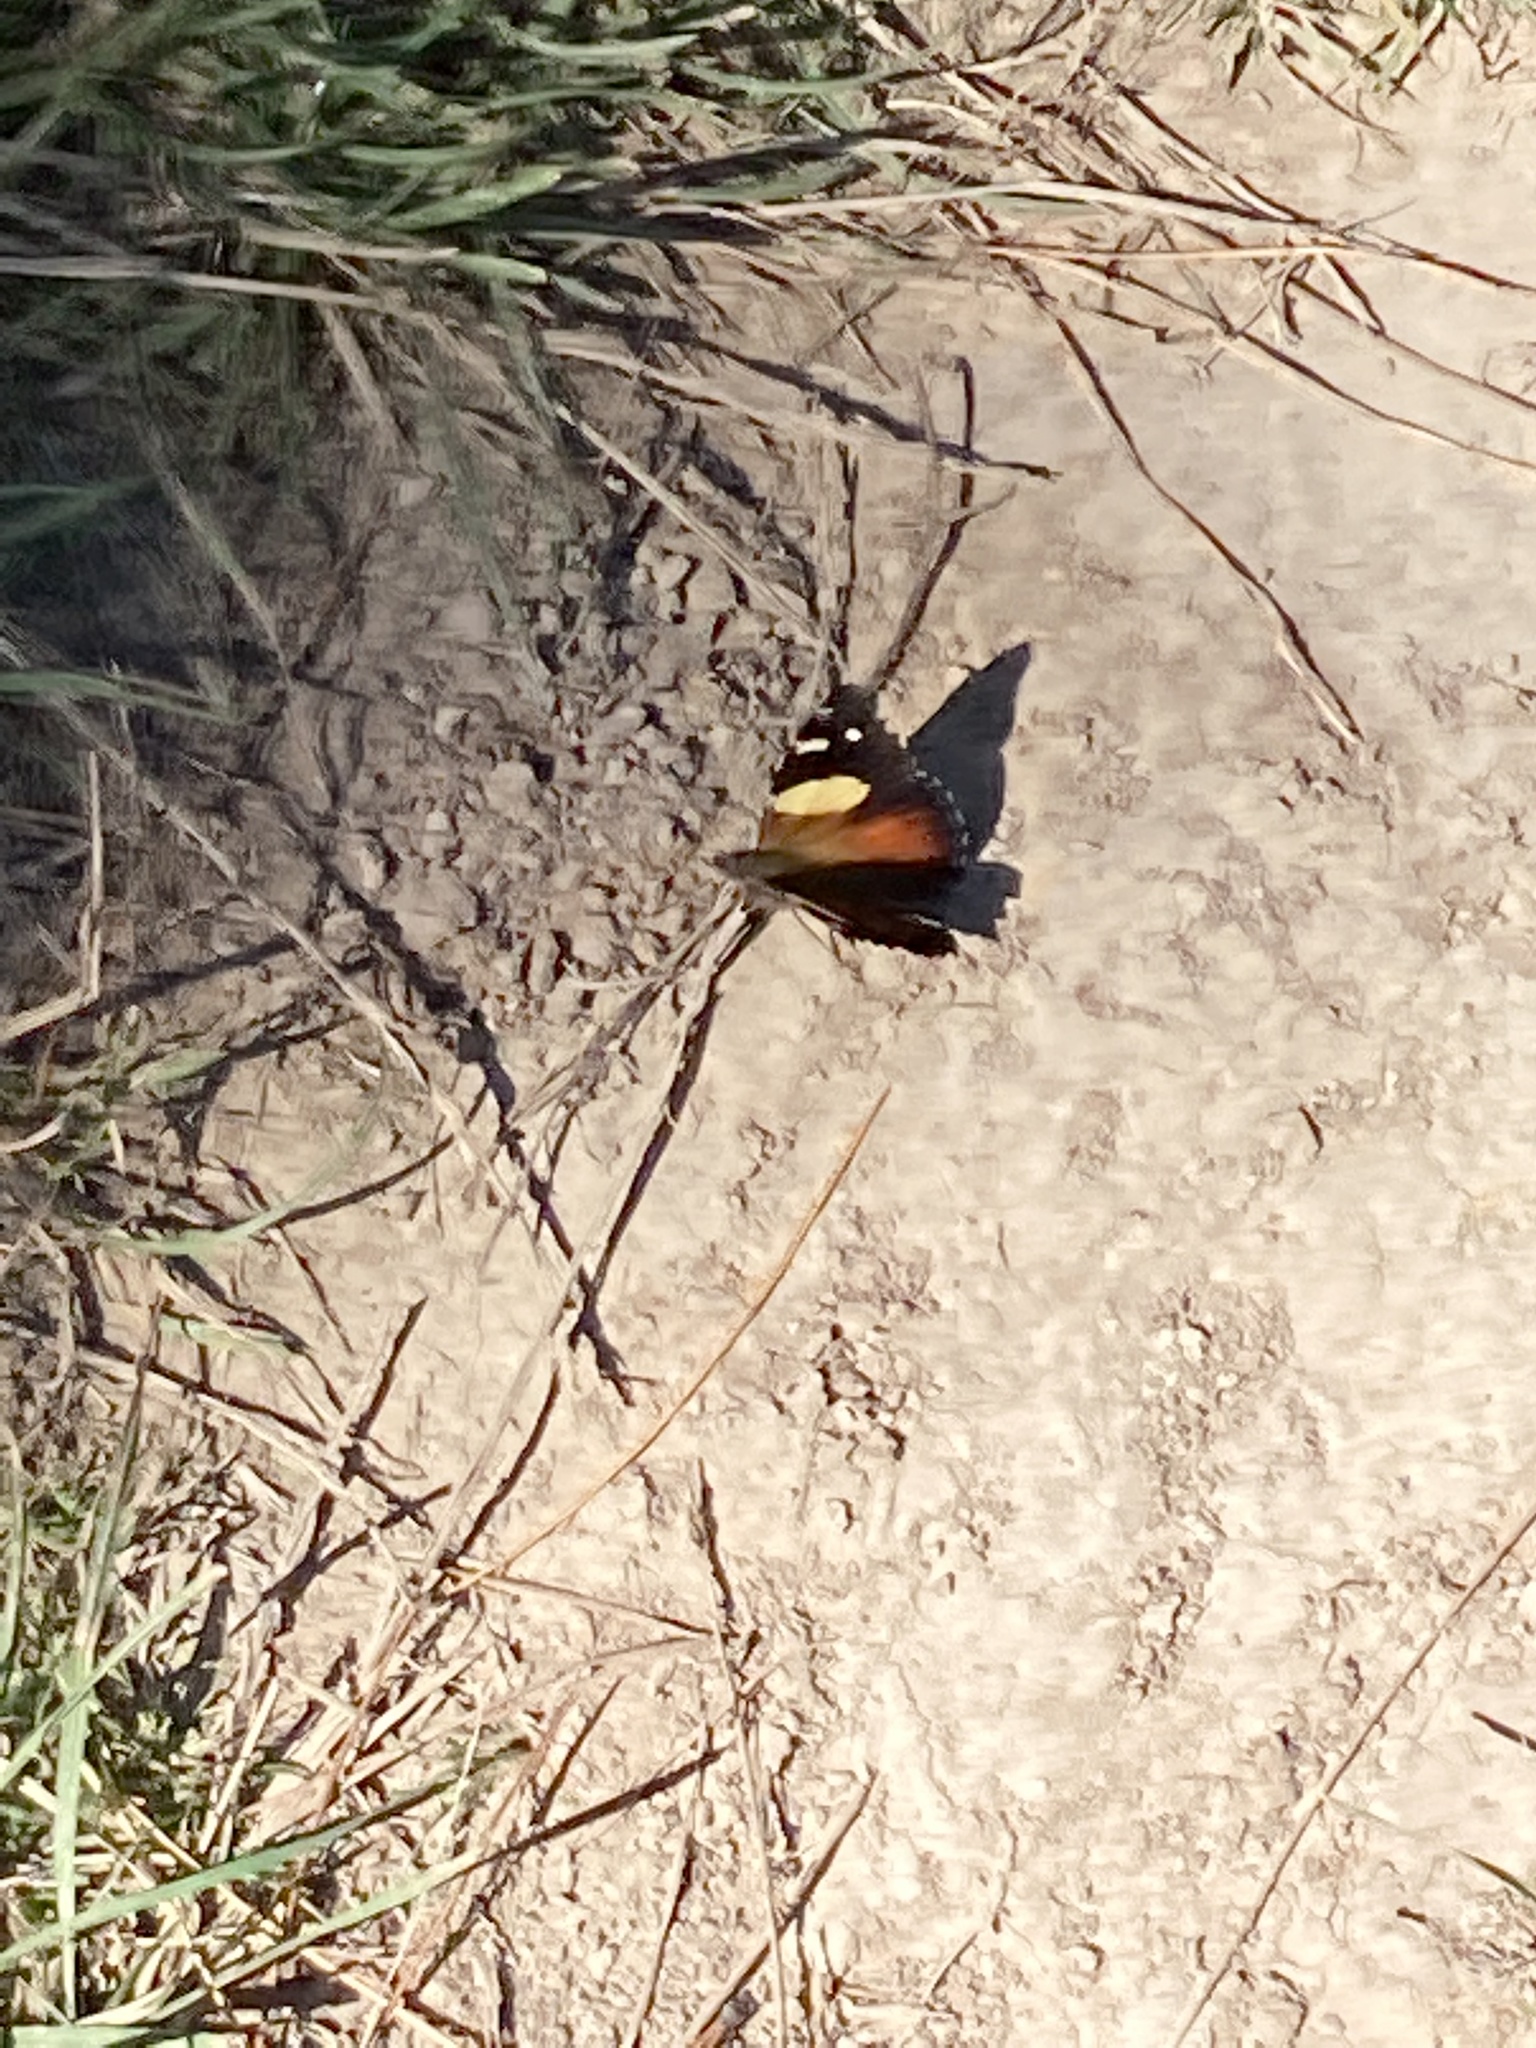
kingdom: Animalia
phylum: Arthropoda
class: Insecta
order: Lepidoptera
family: Nymphalidae
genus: Vanessa
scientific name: Vanessa itea
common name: Yellow admiral
